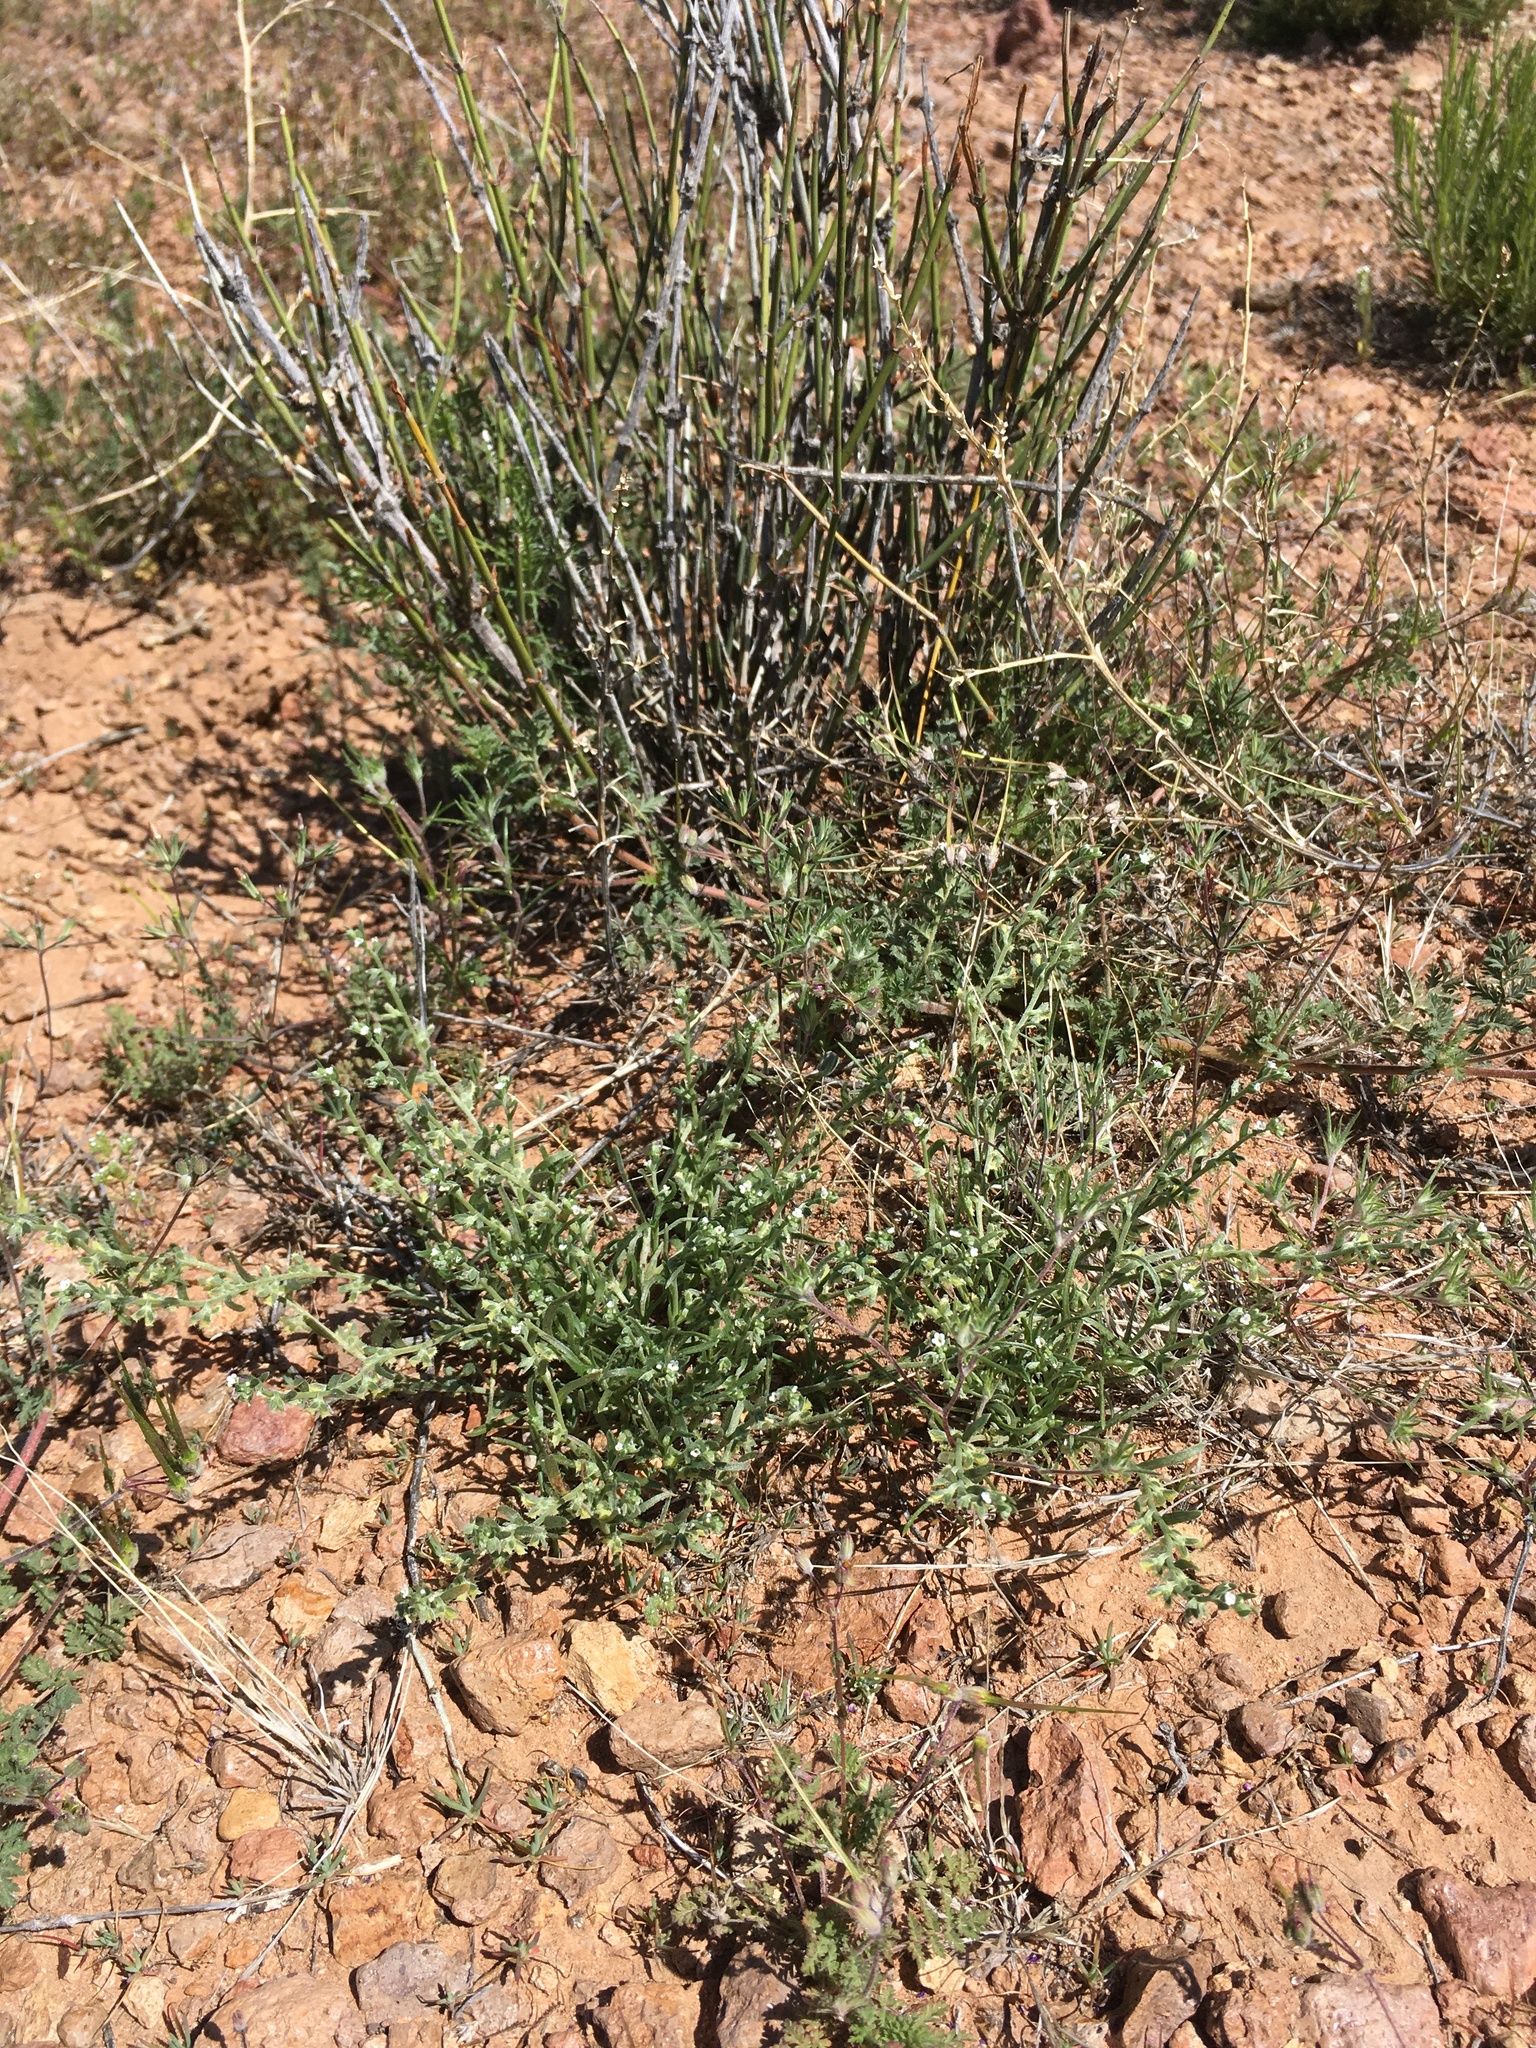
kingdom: Plantae
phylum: Tracheophyta
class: Magnoliopsida
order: Boraginales
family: Boraginaceae
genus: Pectocarya
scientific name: Pectocarya platycarpa
